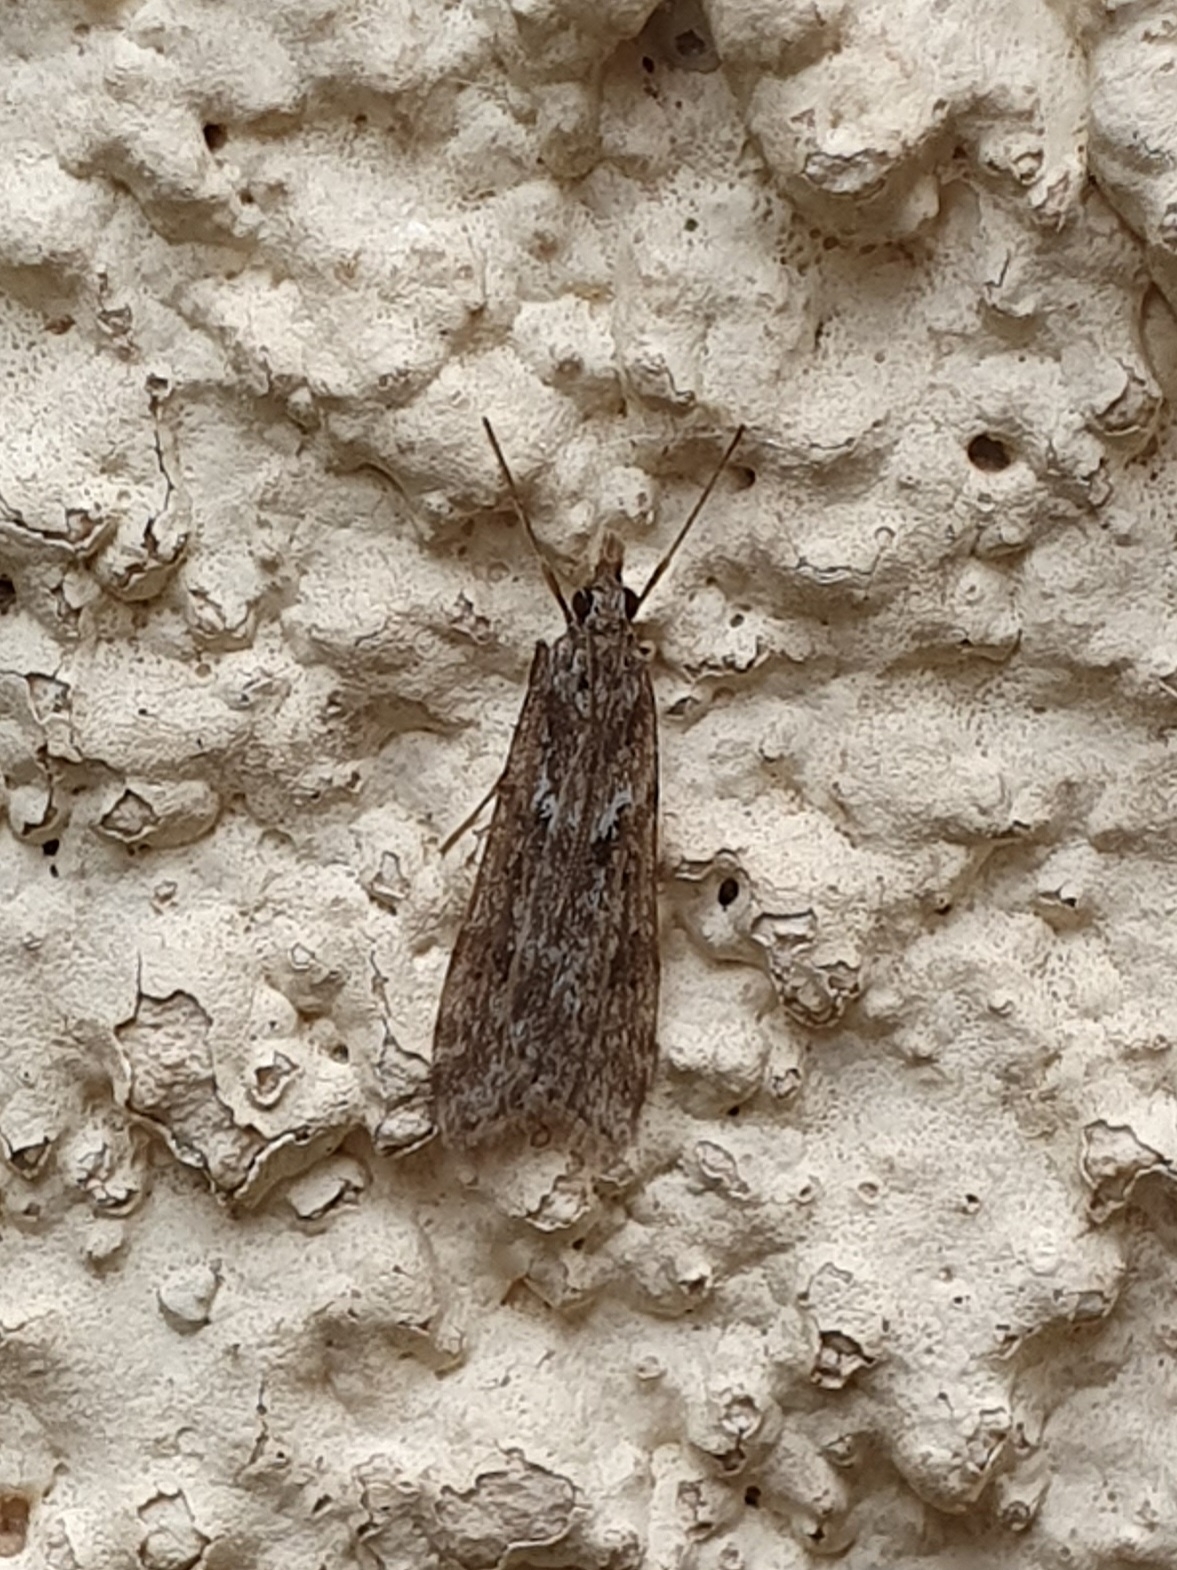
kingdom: Animalia
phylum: Arthropoda
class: Insecta
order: Lepidoptera
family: Crambidae
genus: Eudonia
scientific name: Eudonia angustea
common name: Narrow-winged grey
